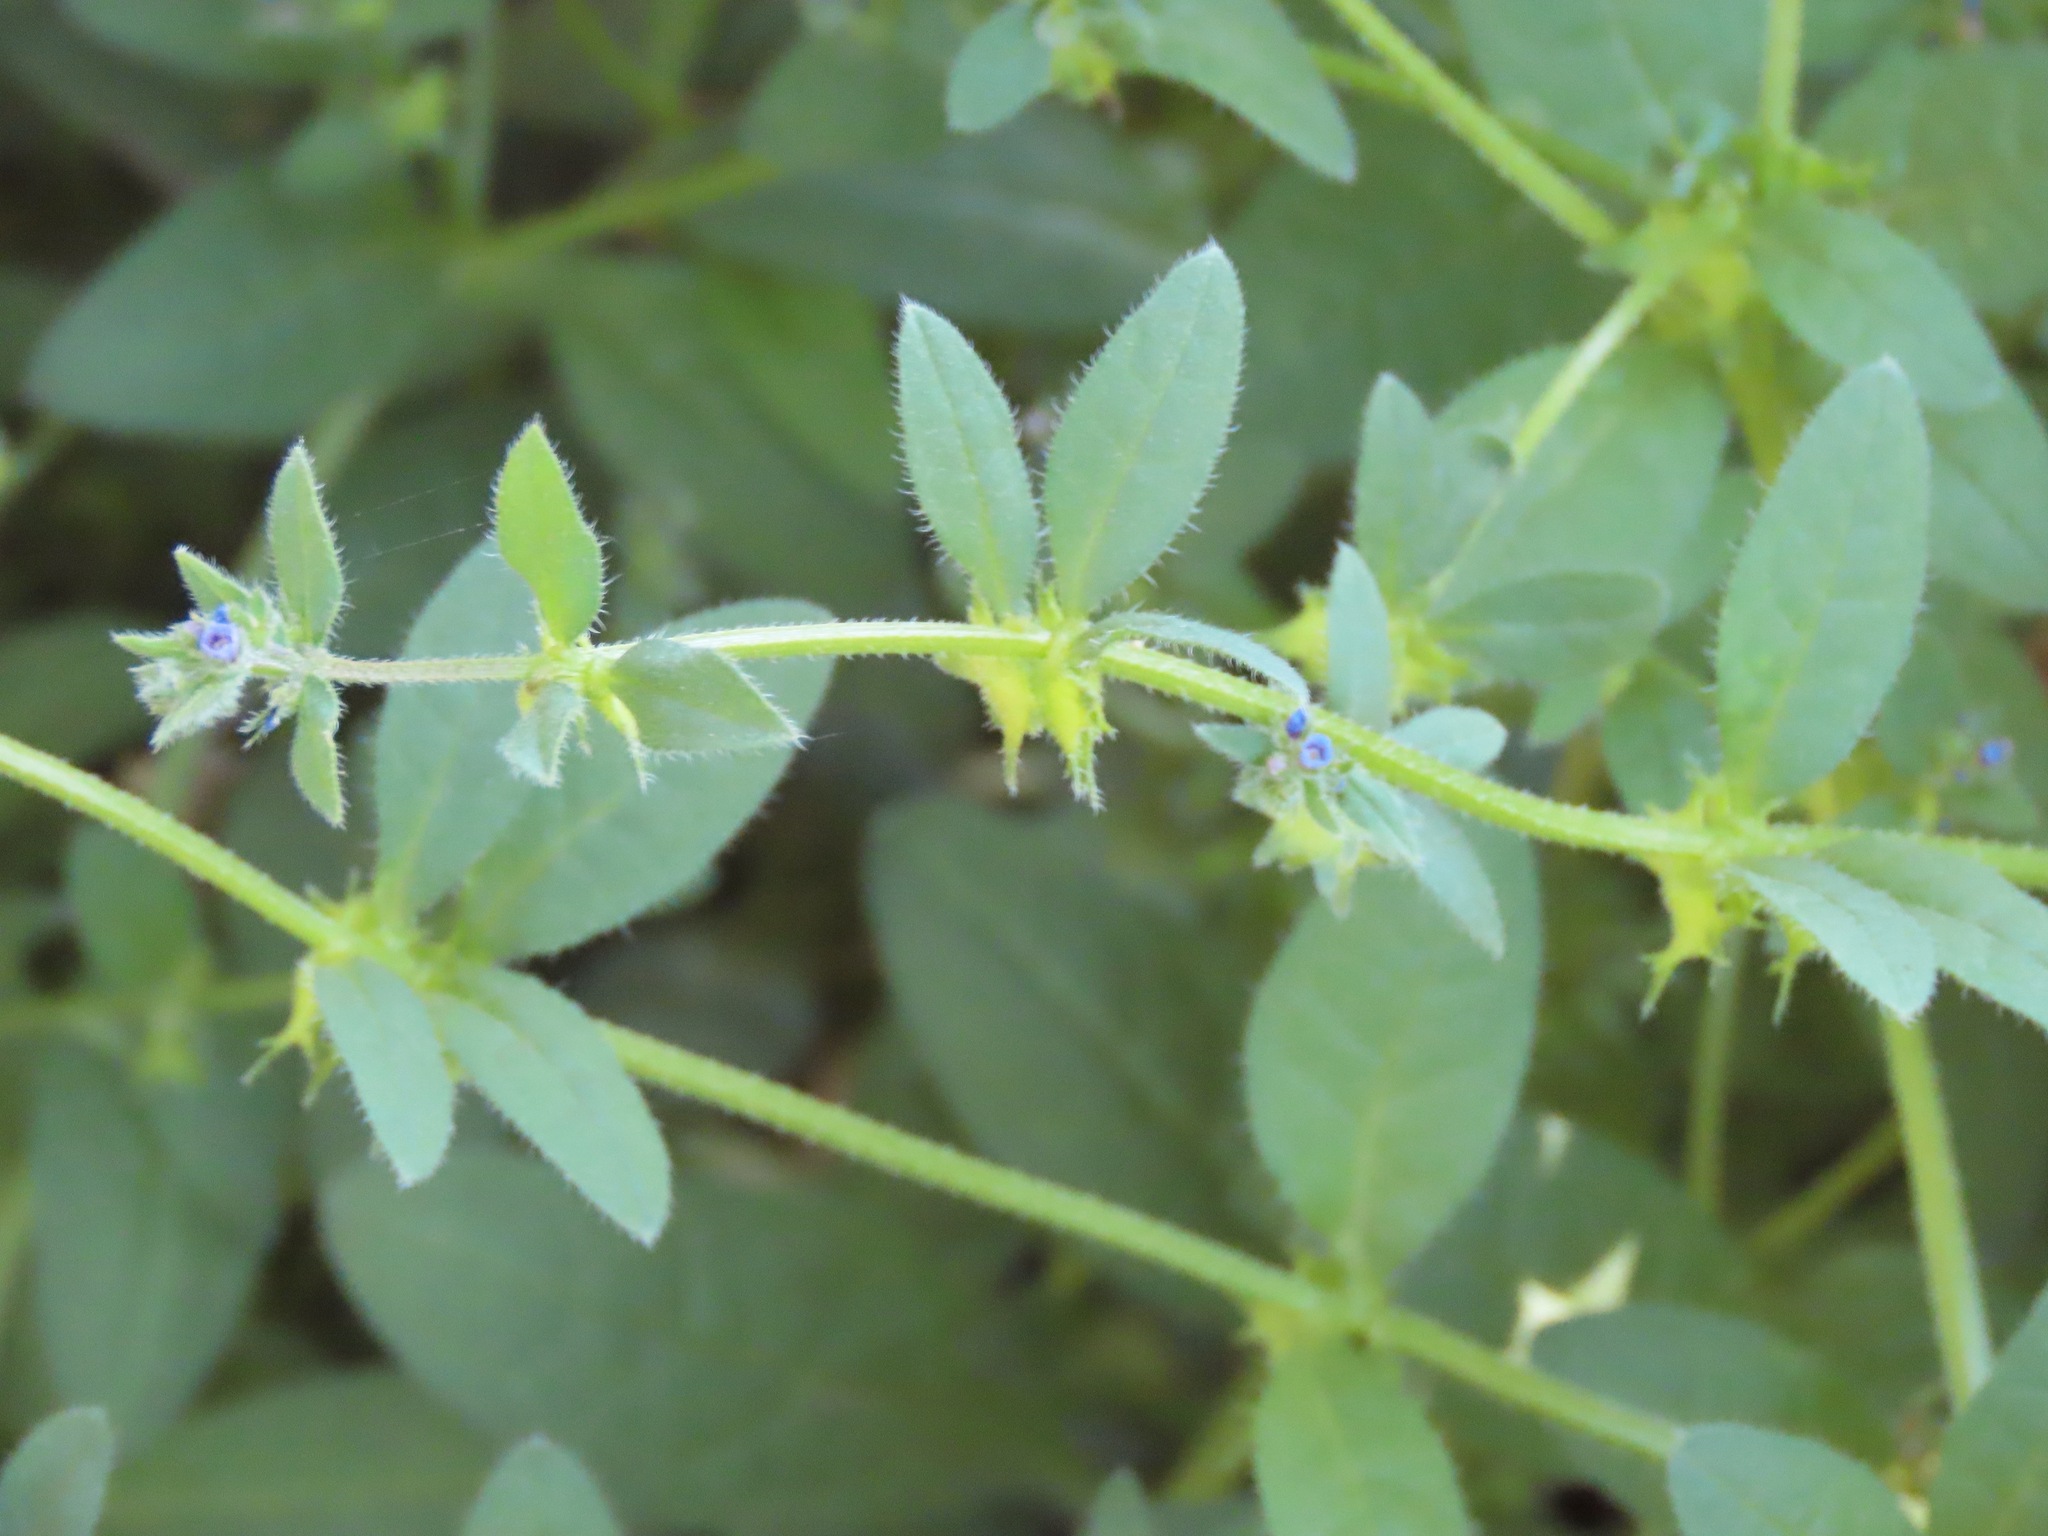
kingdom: Plantae
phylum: Tracheophyta
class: Magnoliopsida
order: Boraginales
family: Boraginaceae
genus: Asperugo
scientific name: Asperugo procumbens
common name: Madwort
